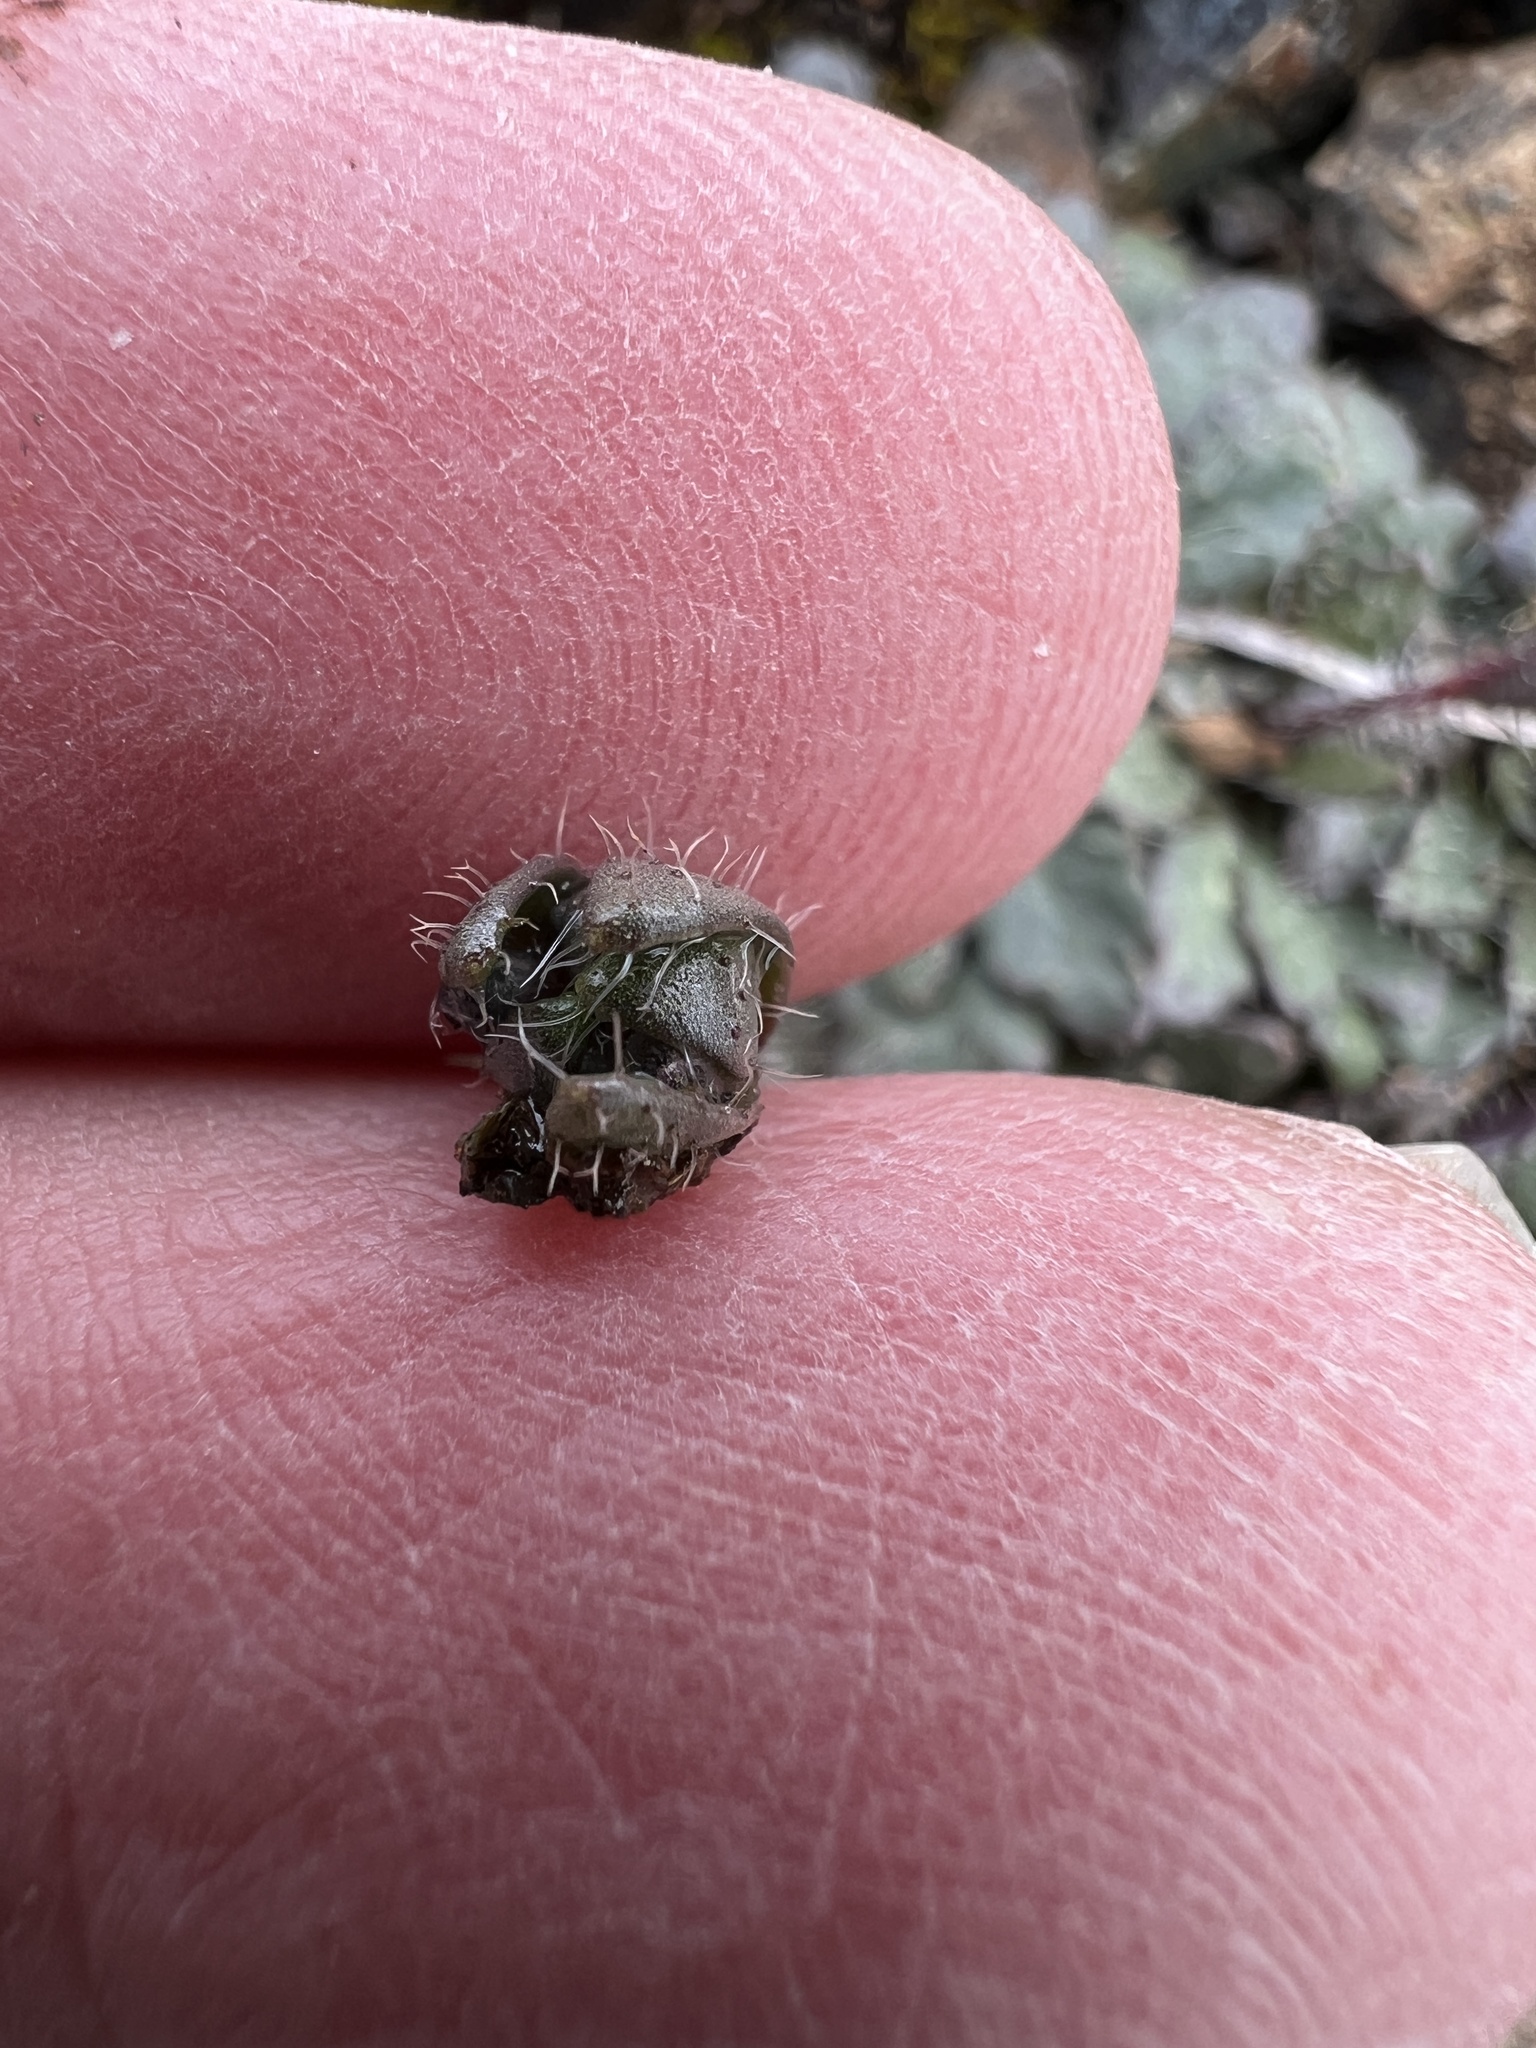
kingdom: Plantae
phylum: Tracheophyta
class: Magnoliopsida
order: Brassicales
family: Brassicaceae
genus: Arabis
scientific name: Arabis aculeolata
